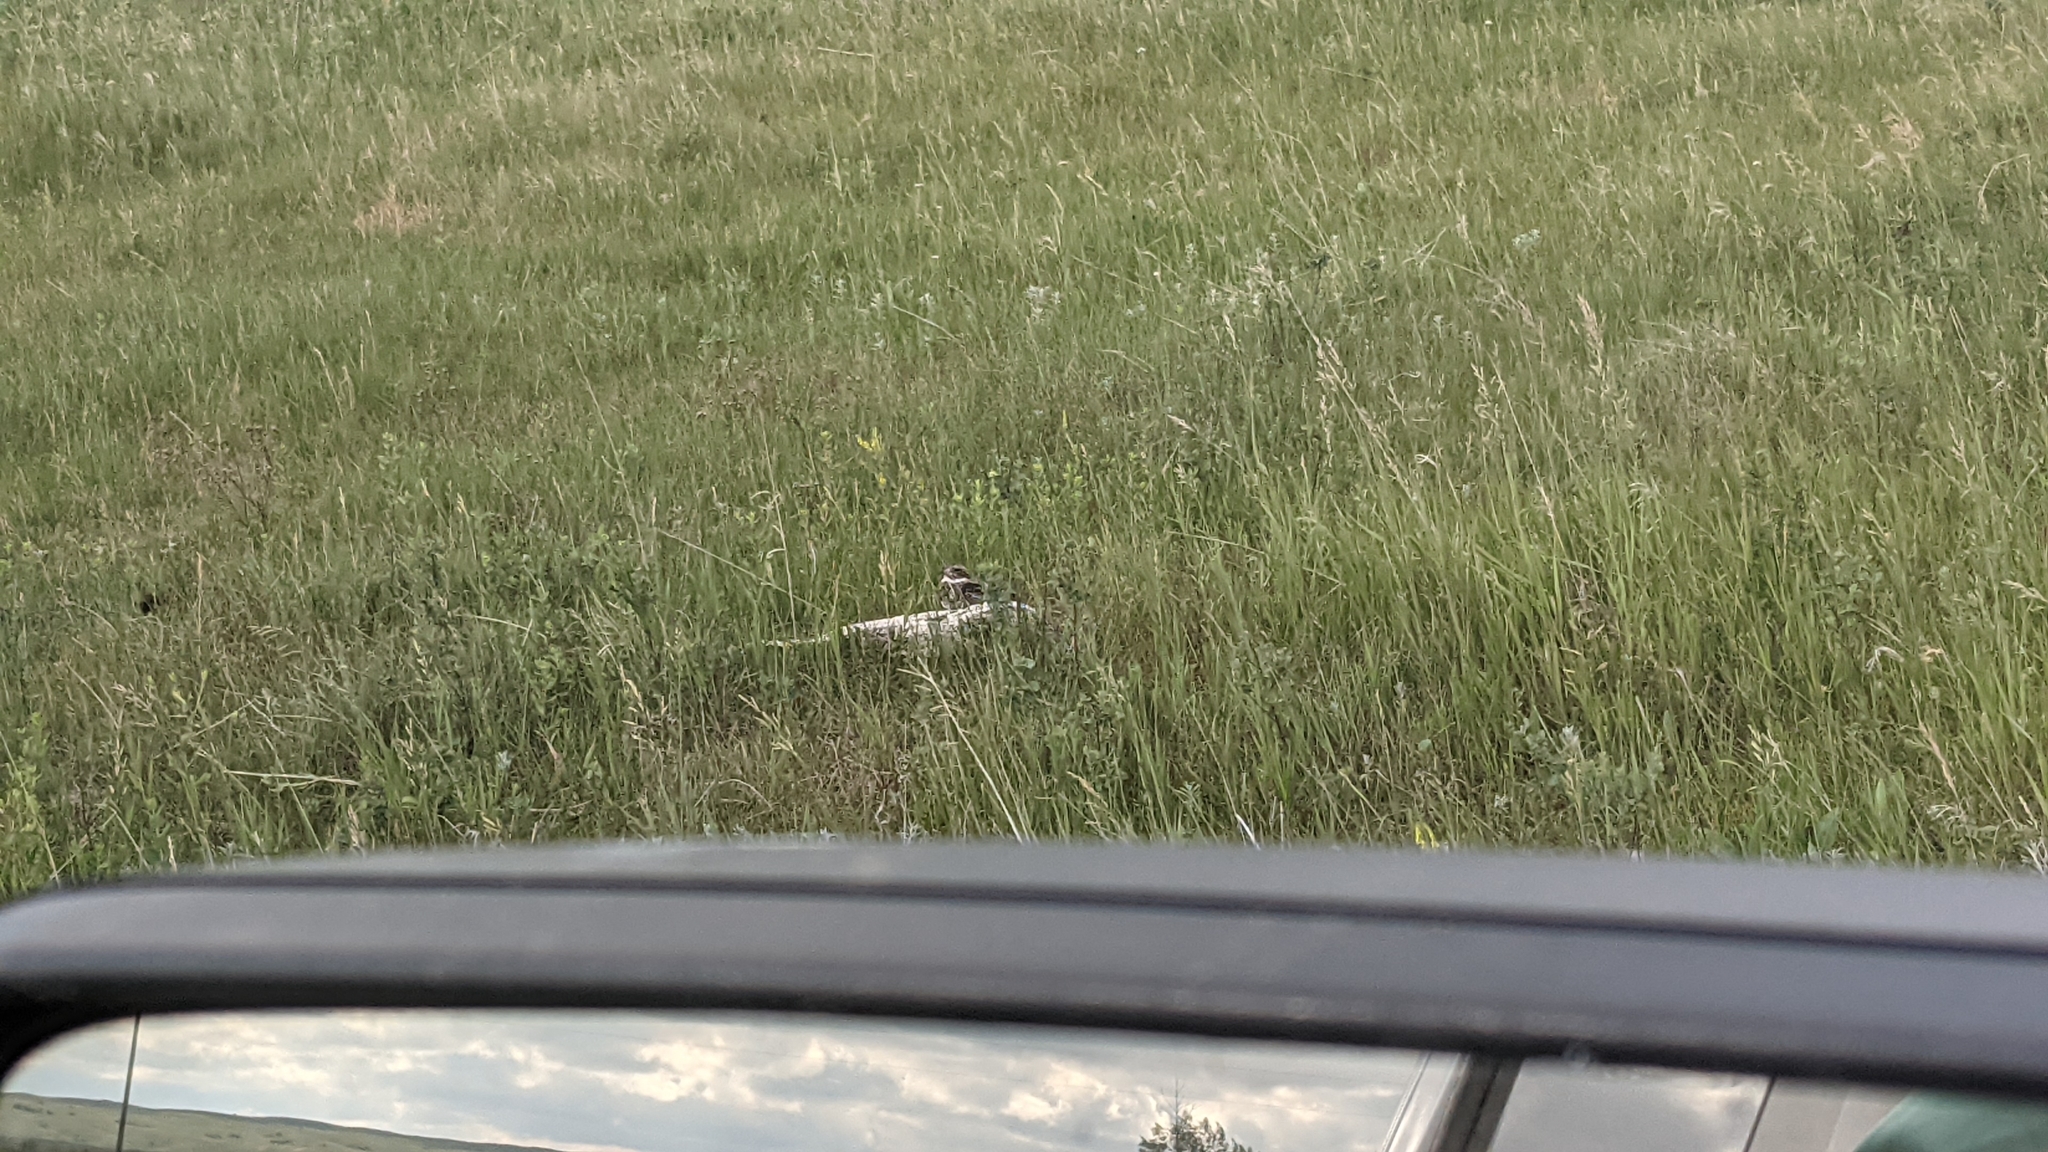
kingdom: Animalia
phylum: Chordata
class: Aves
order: Caprimulgiformes
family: Caprimulgidae
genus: Chordeiles
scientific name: Chordeiles minor
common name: Common nighthawk
